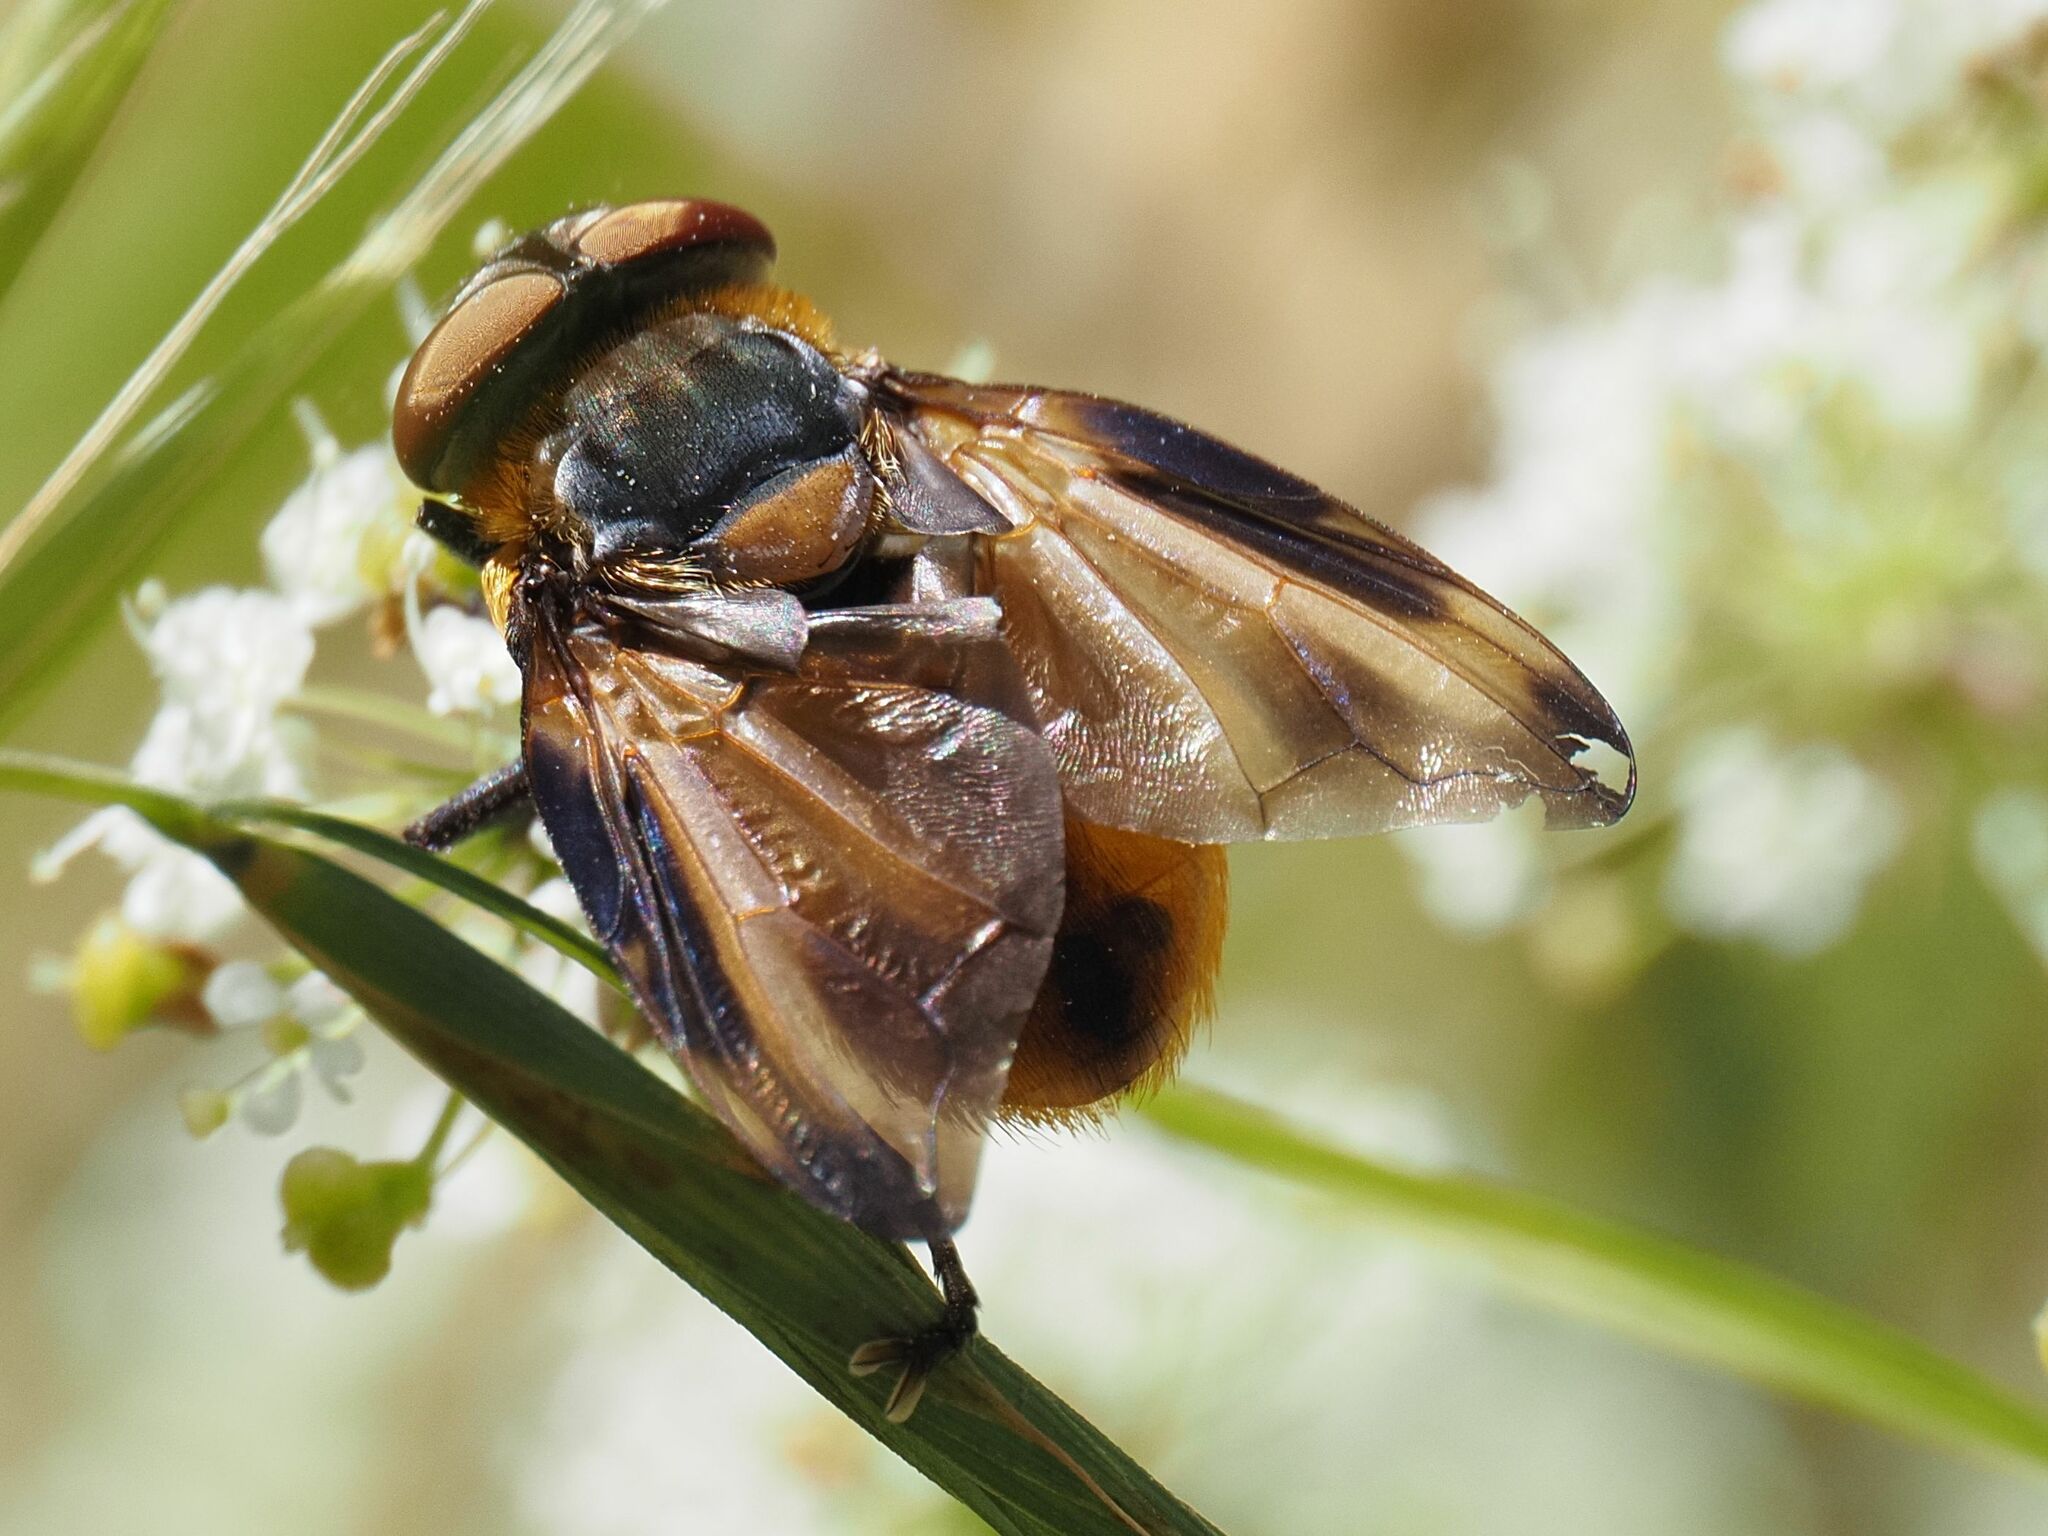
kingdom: Animalia
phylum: Arthropoda
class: Insecta
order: Diptera
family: Tachinidae
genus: Phasia
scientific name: Phasia hemiptera
